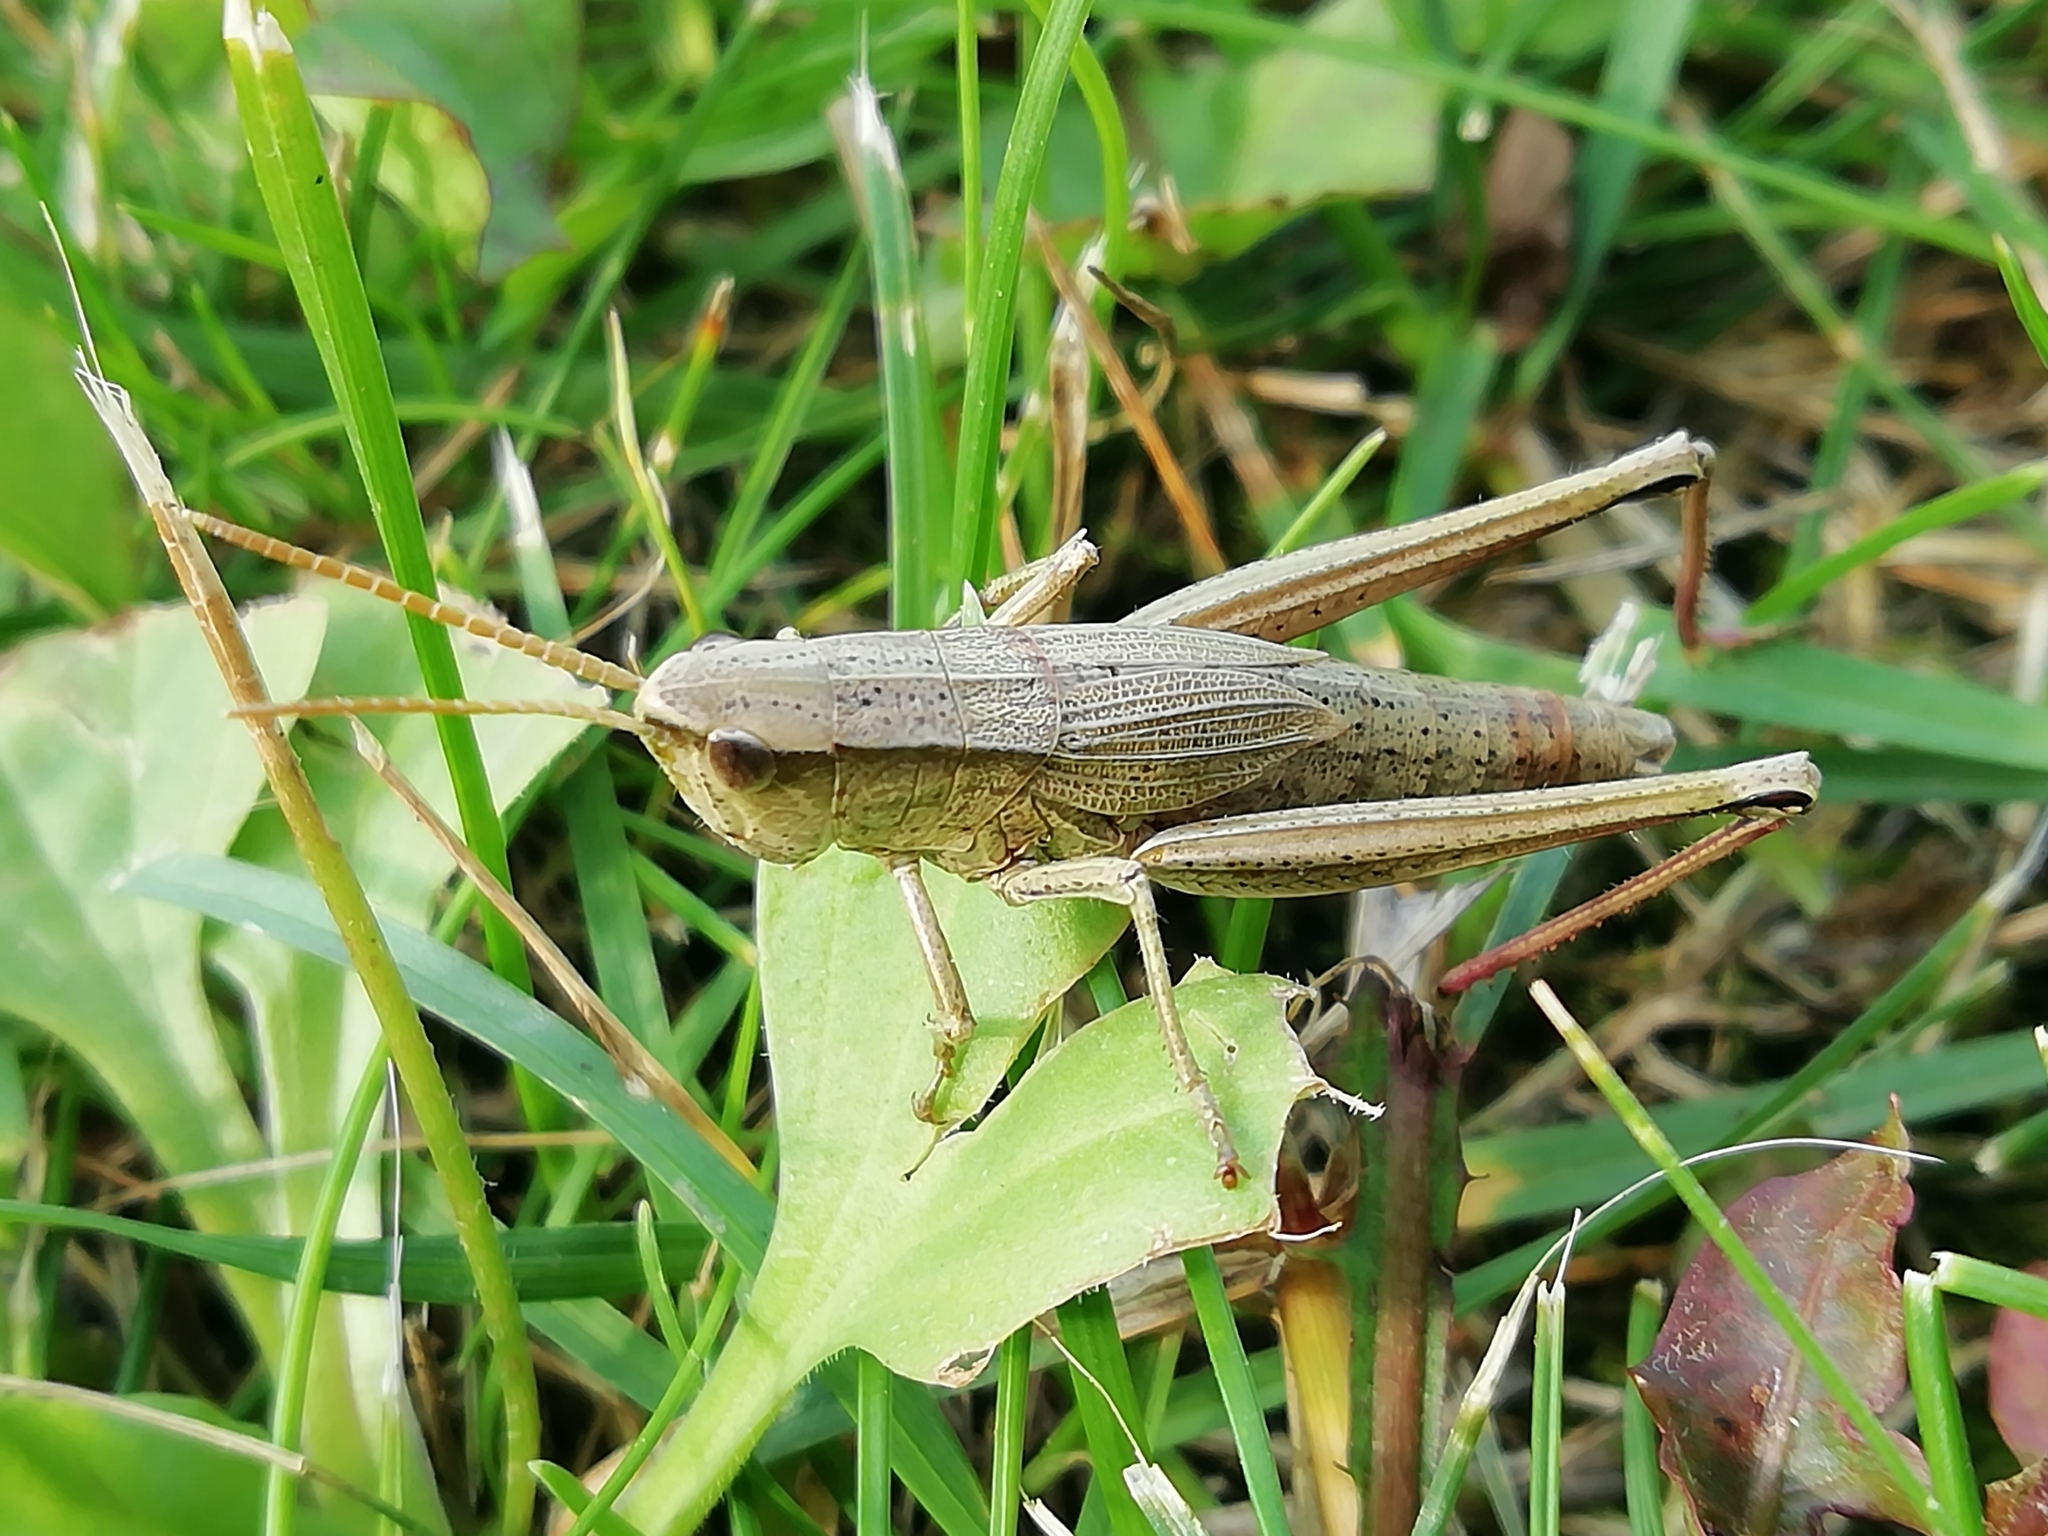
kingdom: Animalia
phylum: Arthropoda
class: Insecta
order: Orthoptera
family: Acrididae
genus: Chrysochraon
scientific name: Chrysochraon dispar
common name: Large gold grasshopper
